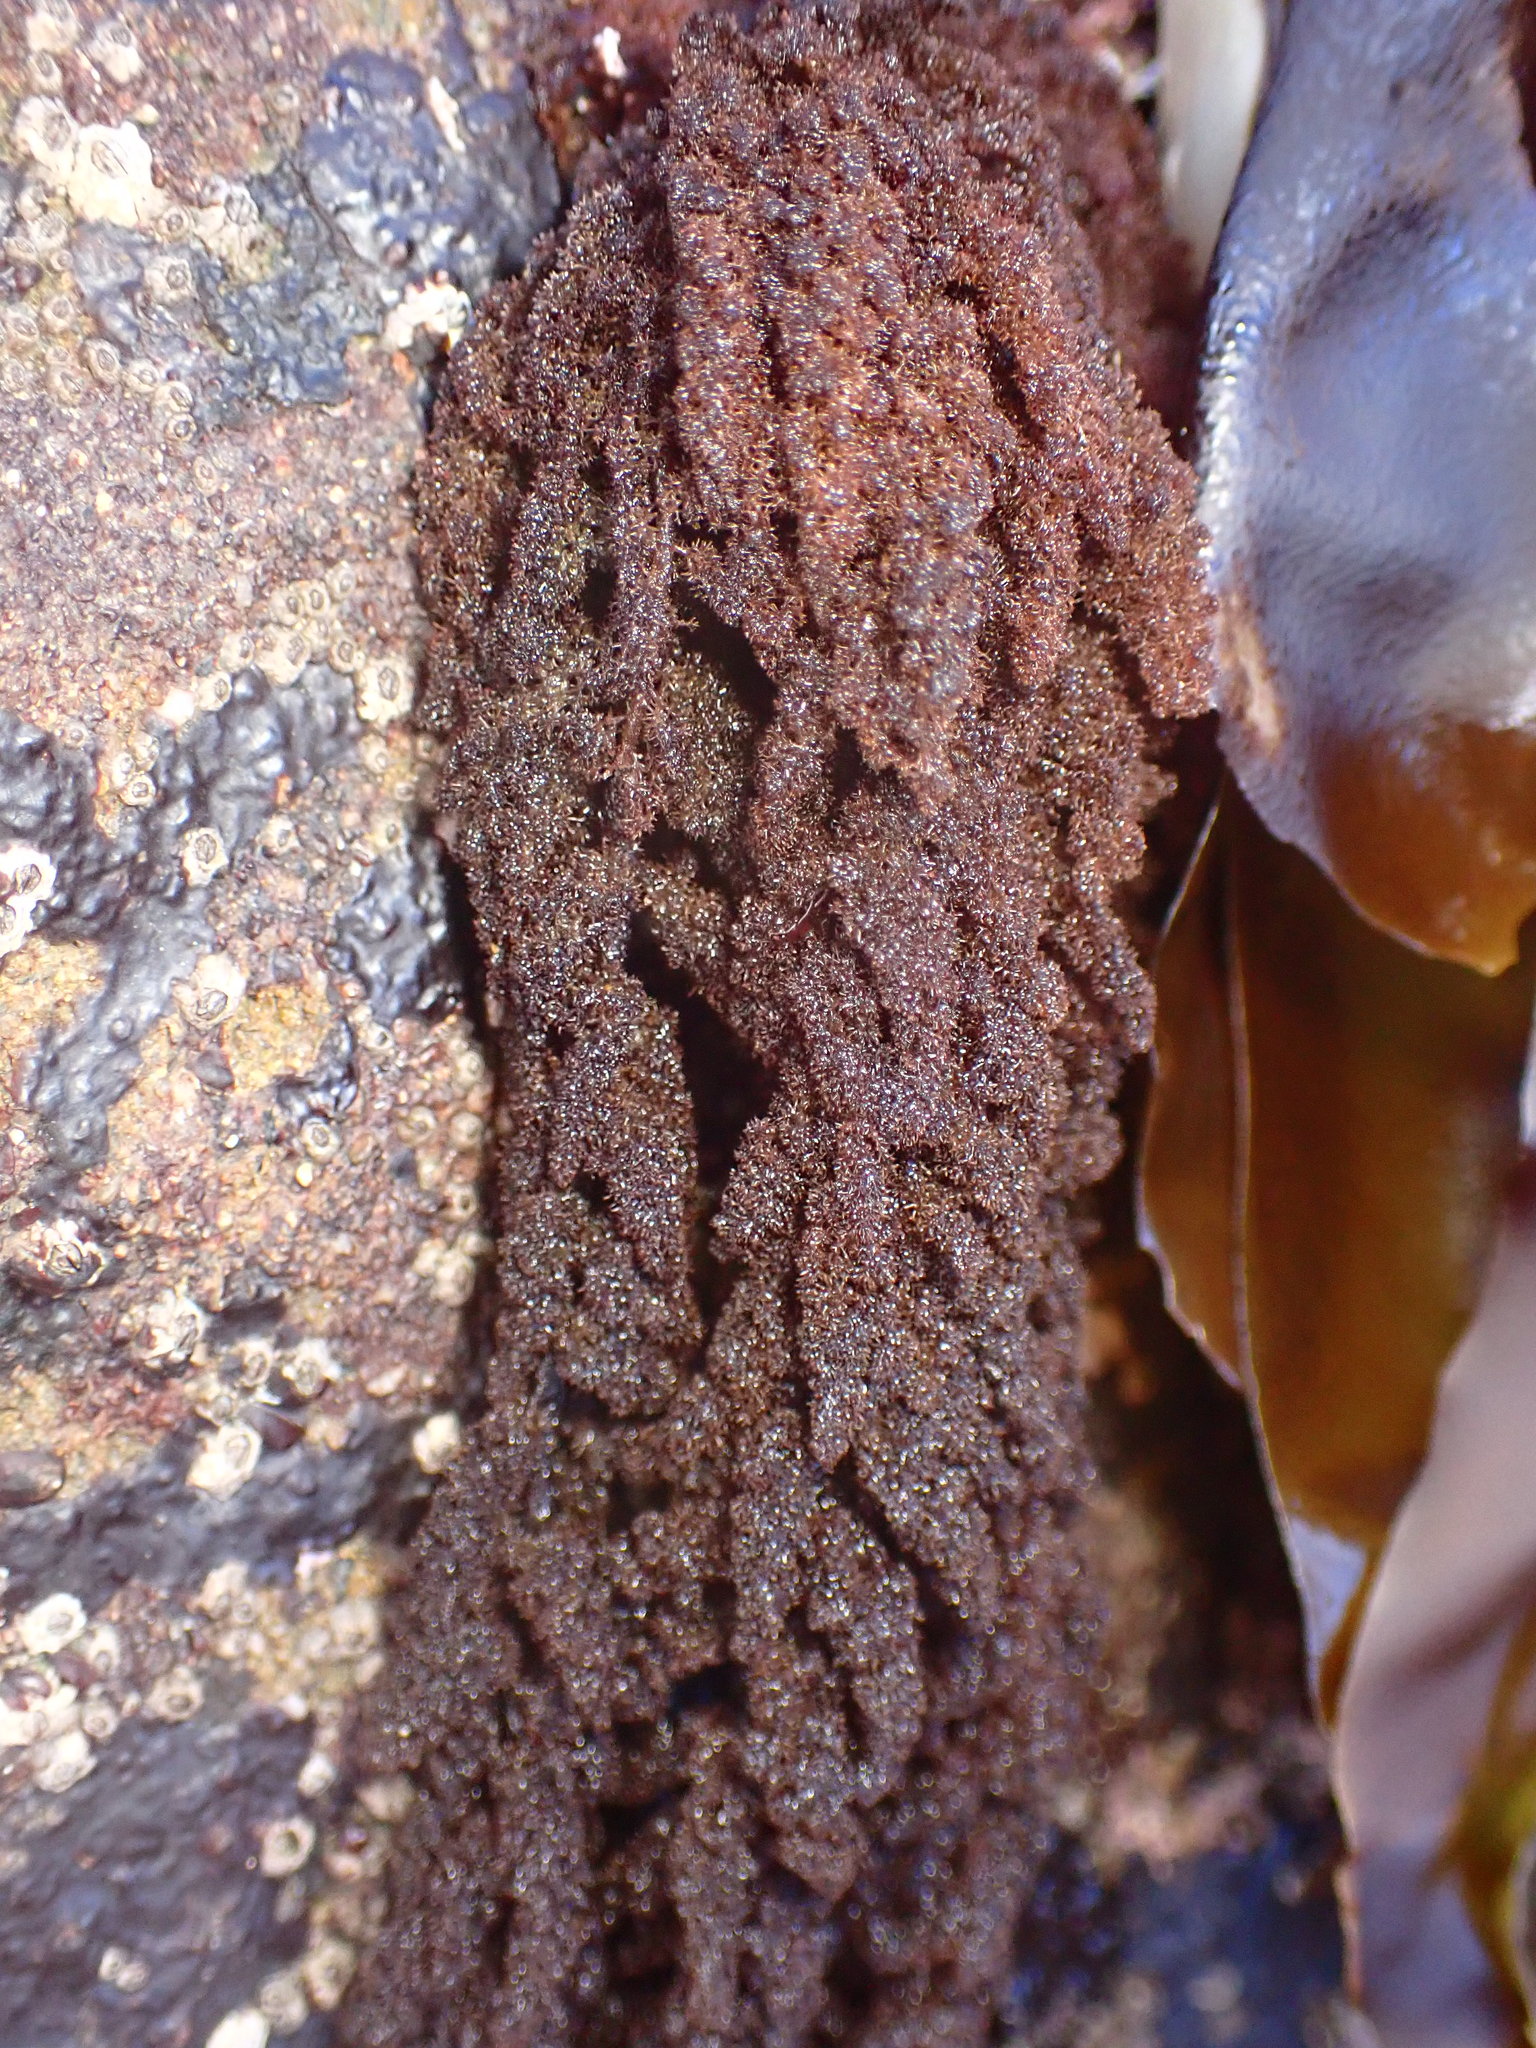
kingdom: Plantae
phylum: Rhodophyta
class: Florideophyceae
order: Ceramiales
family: Callithamniaceae
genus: Callithamnion
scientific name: Callithamnion pikeanum
